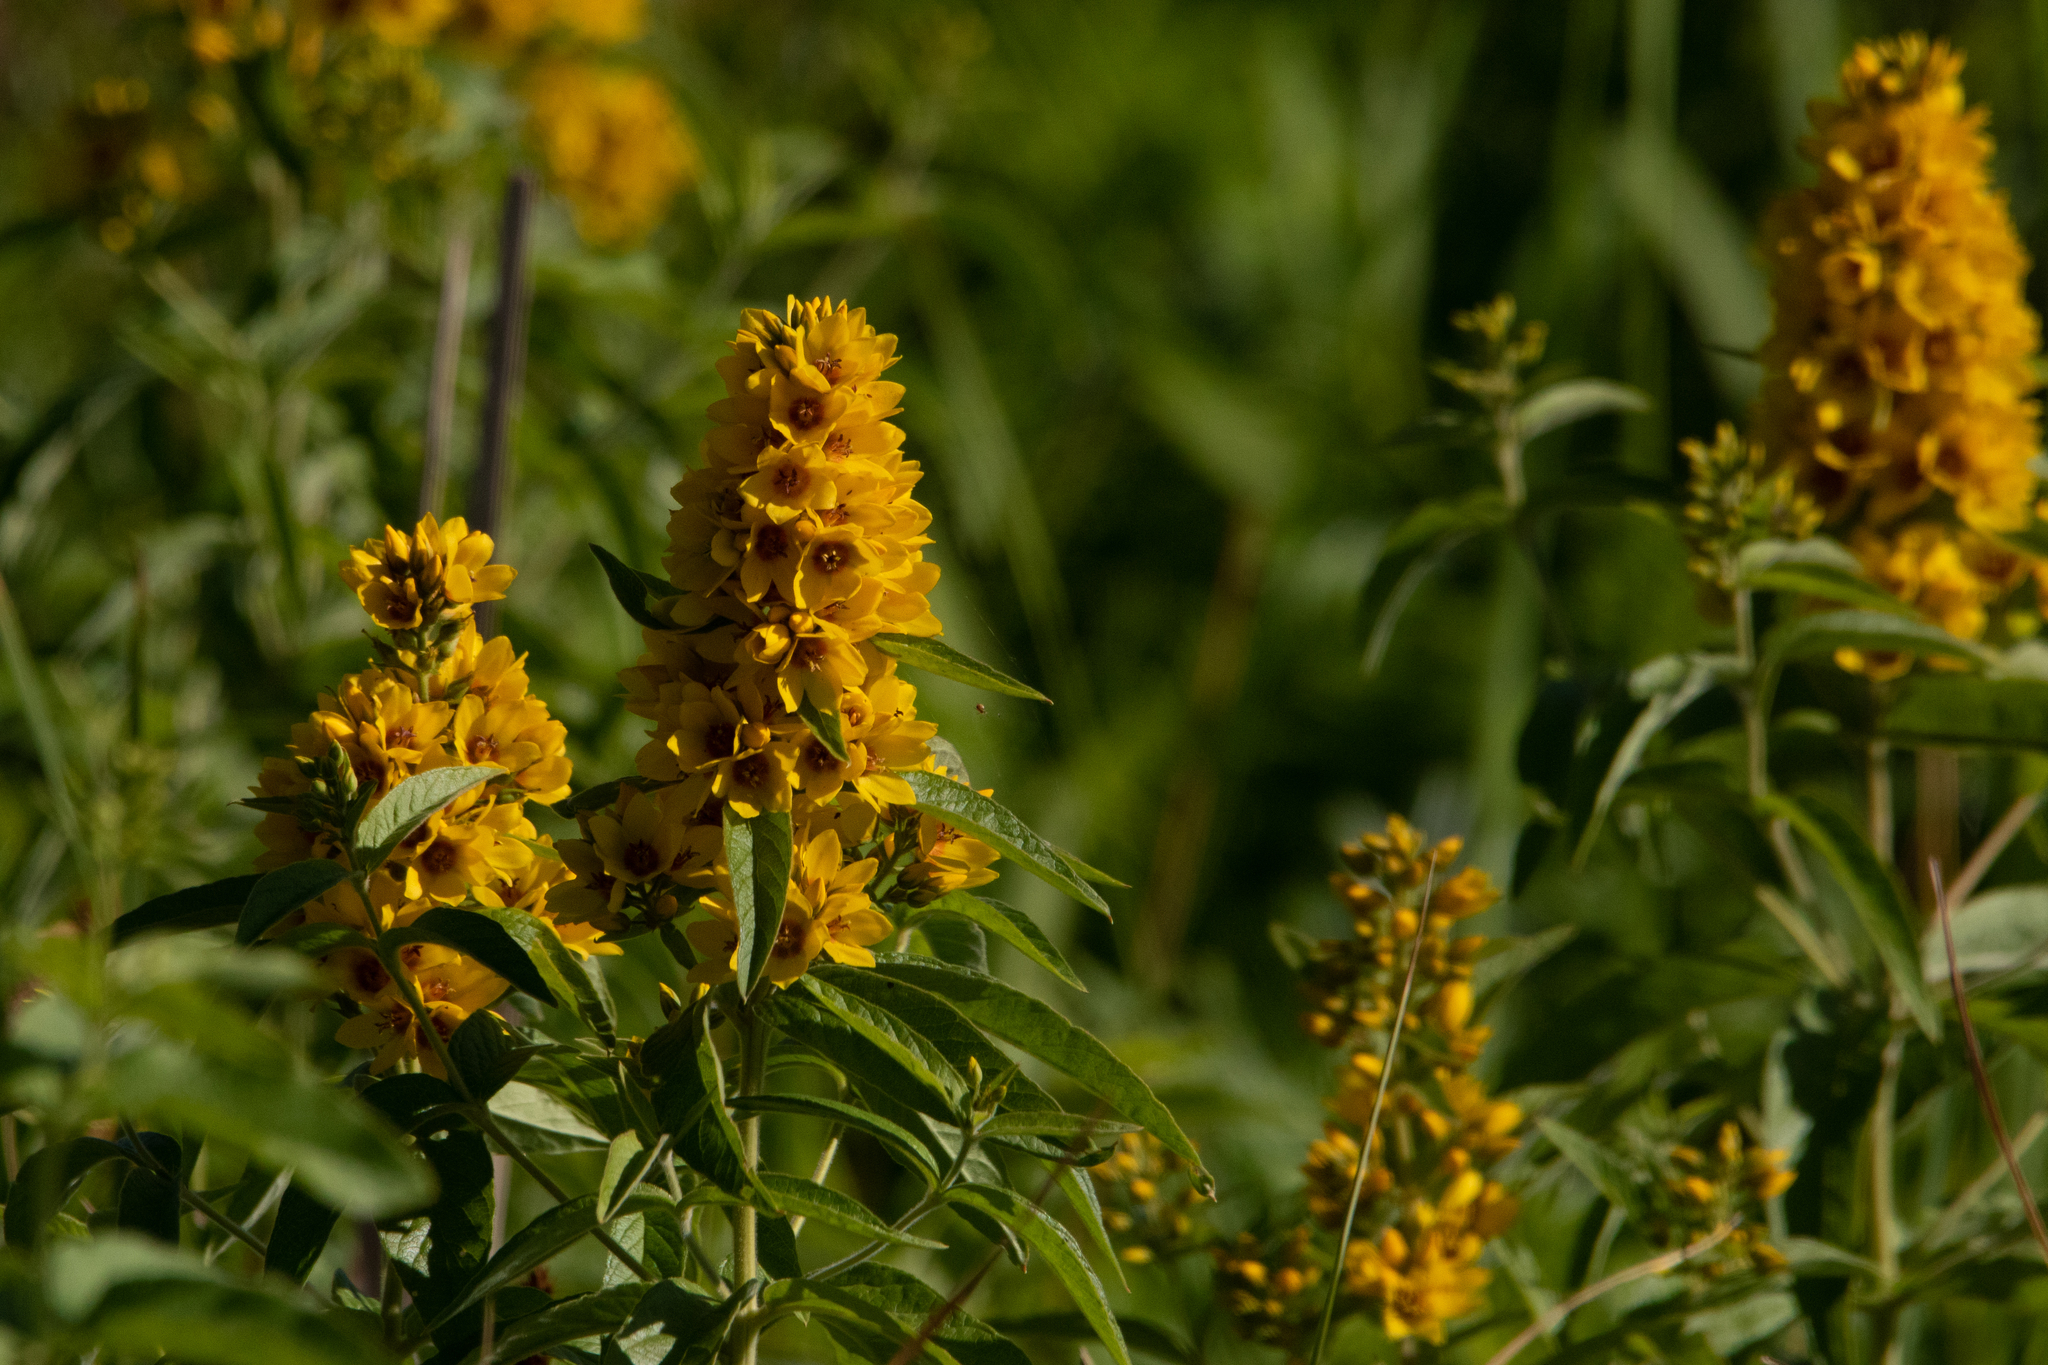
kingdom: Plantae
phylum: Tracheophyta
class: Magnoliopsida
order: Ericales
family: Primulaceae
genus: Lysimachia
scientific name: Lysimachia vulgaris
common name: Yellow loosestrife
